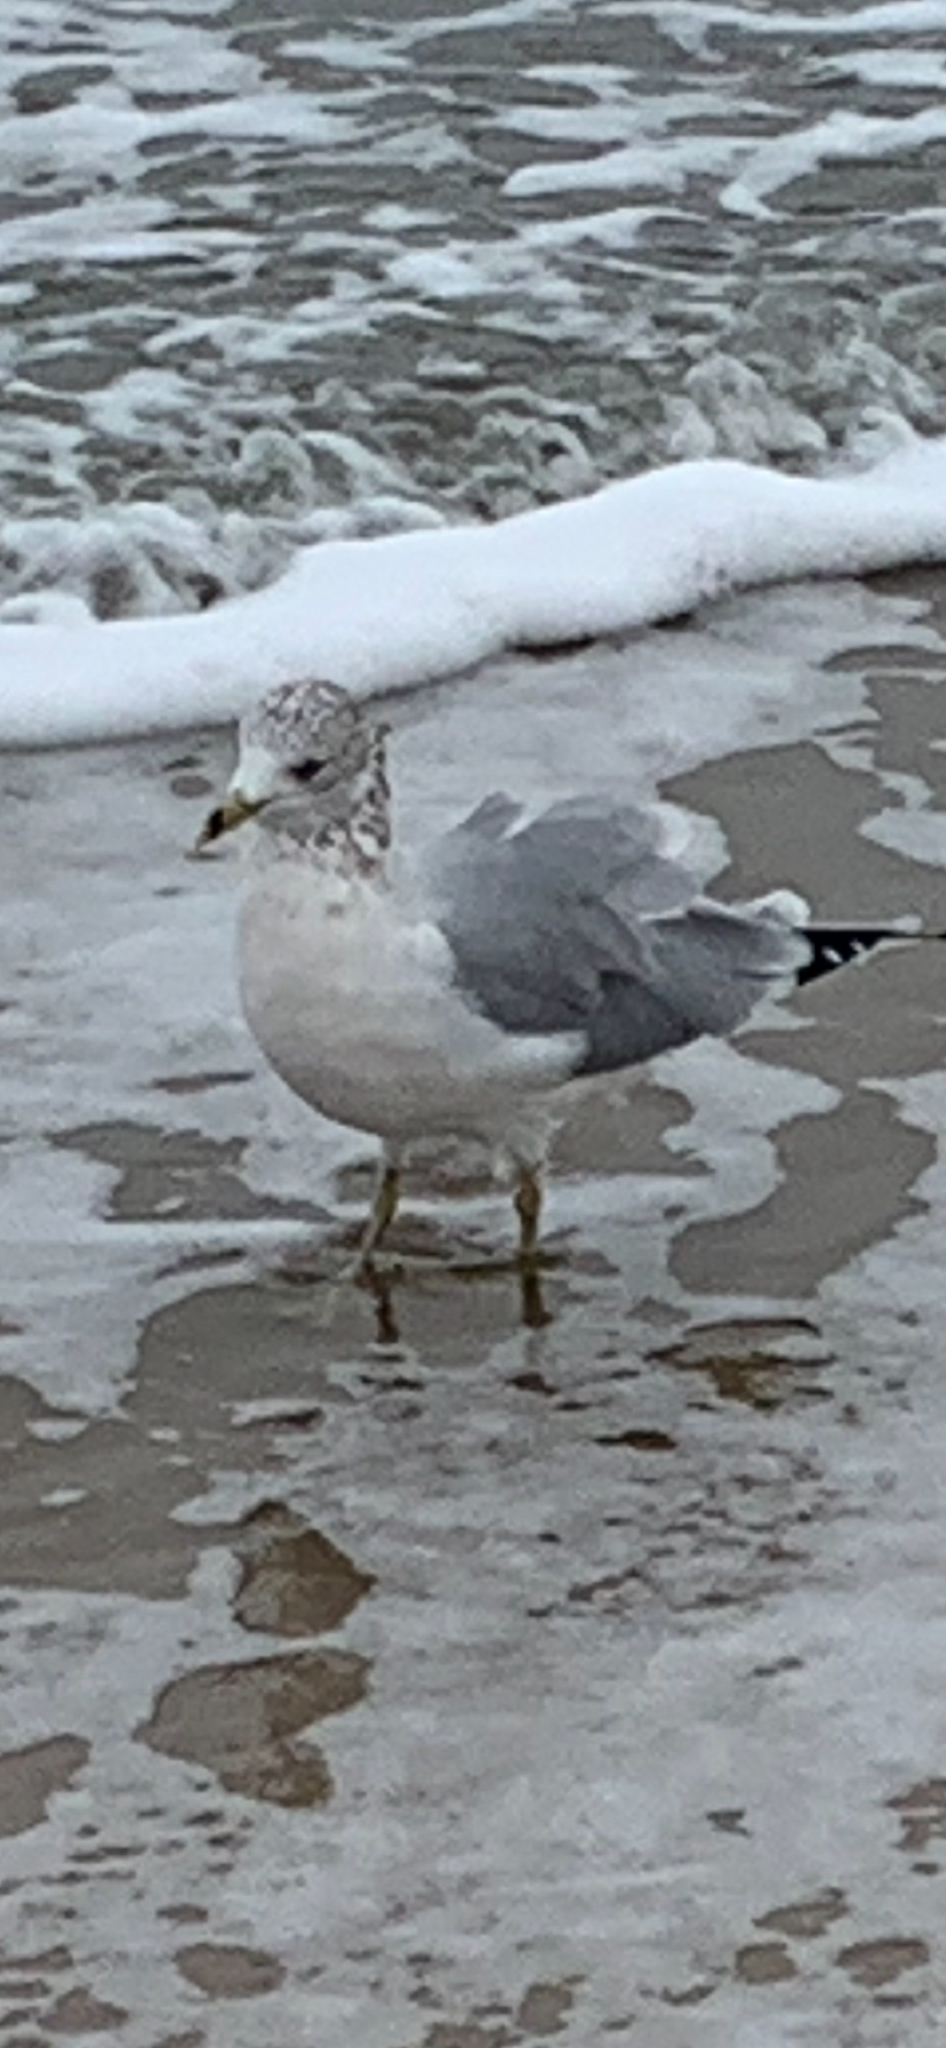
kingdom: Animalia
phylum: Chordata
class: Aves
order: Charadriiformes
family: Laridae
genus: Larus
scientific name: Larus delawarensis
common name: Ring-billed gull
